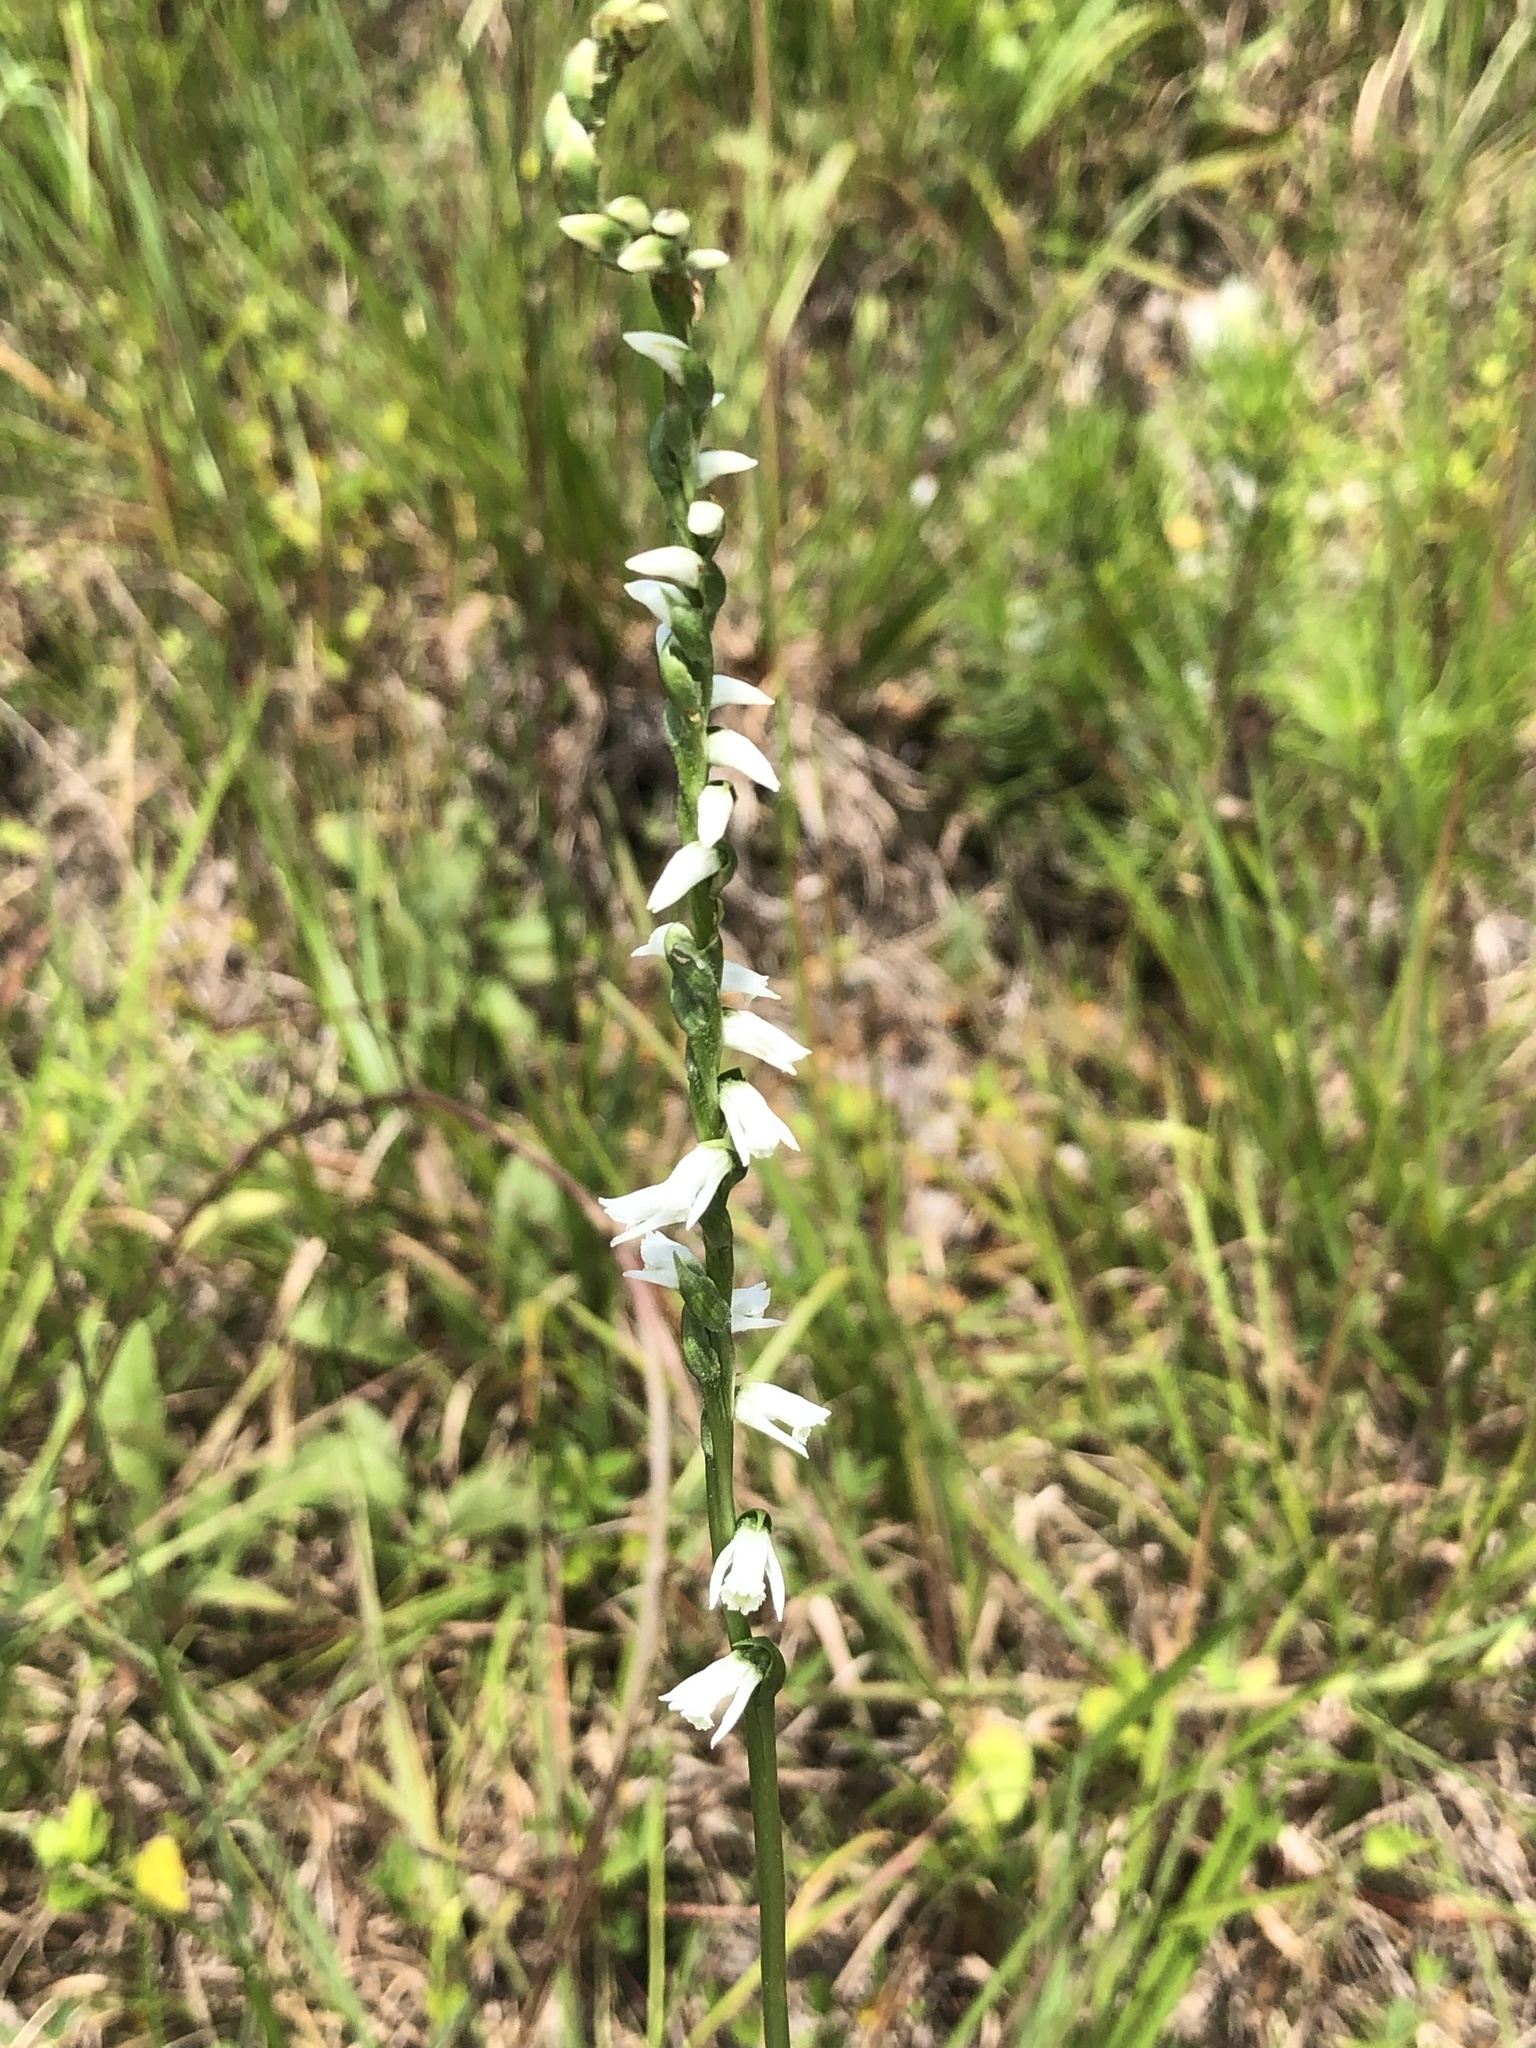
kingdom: Plantae
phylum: Tracheophyta
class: Liliopsida
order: Asparagales
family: Orchidaceae
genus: Spiranthes
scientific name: Spiranthes lacera
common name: Northern slender ladies'-tresses
